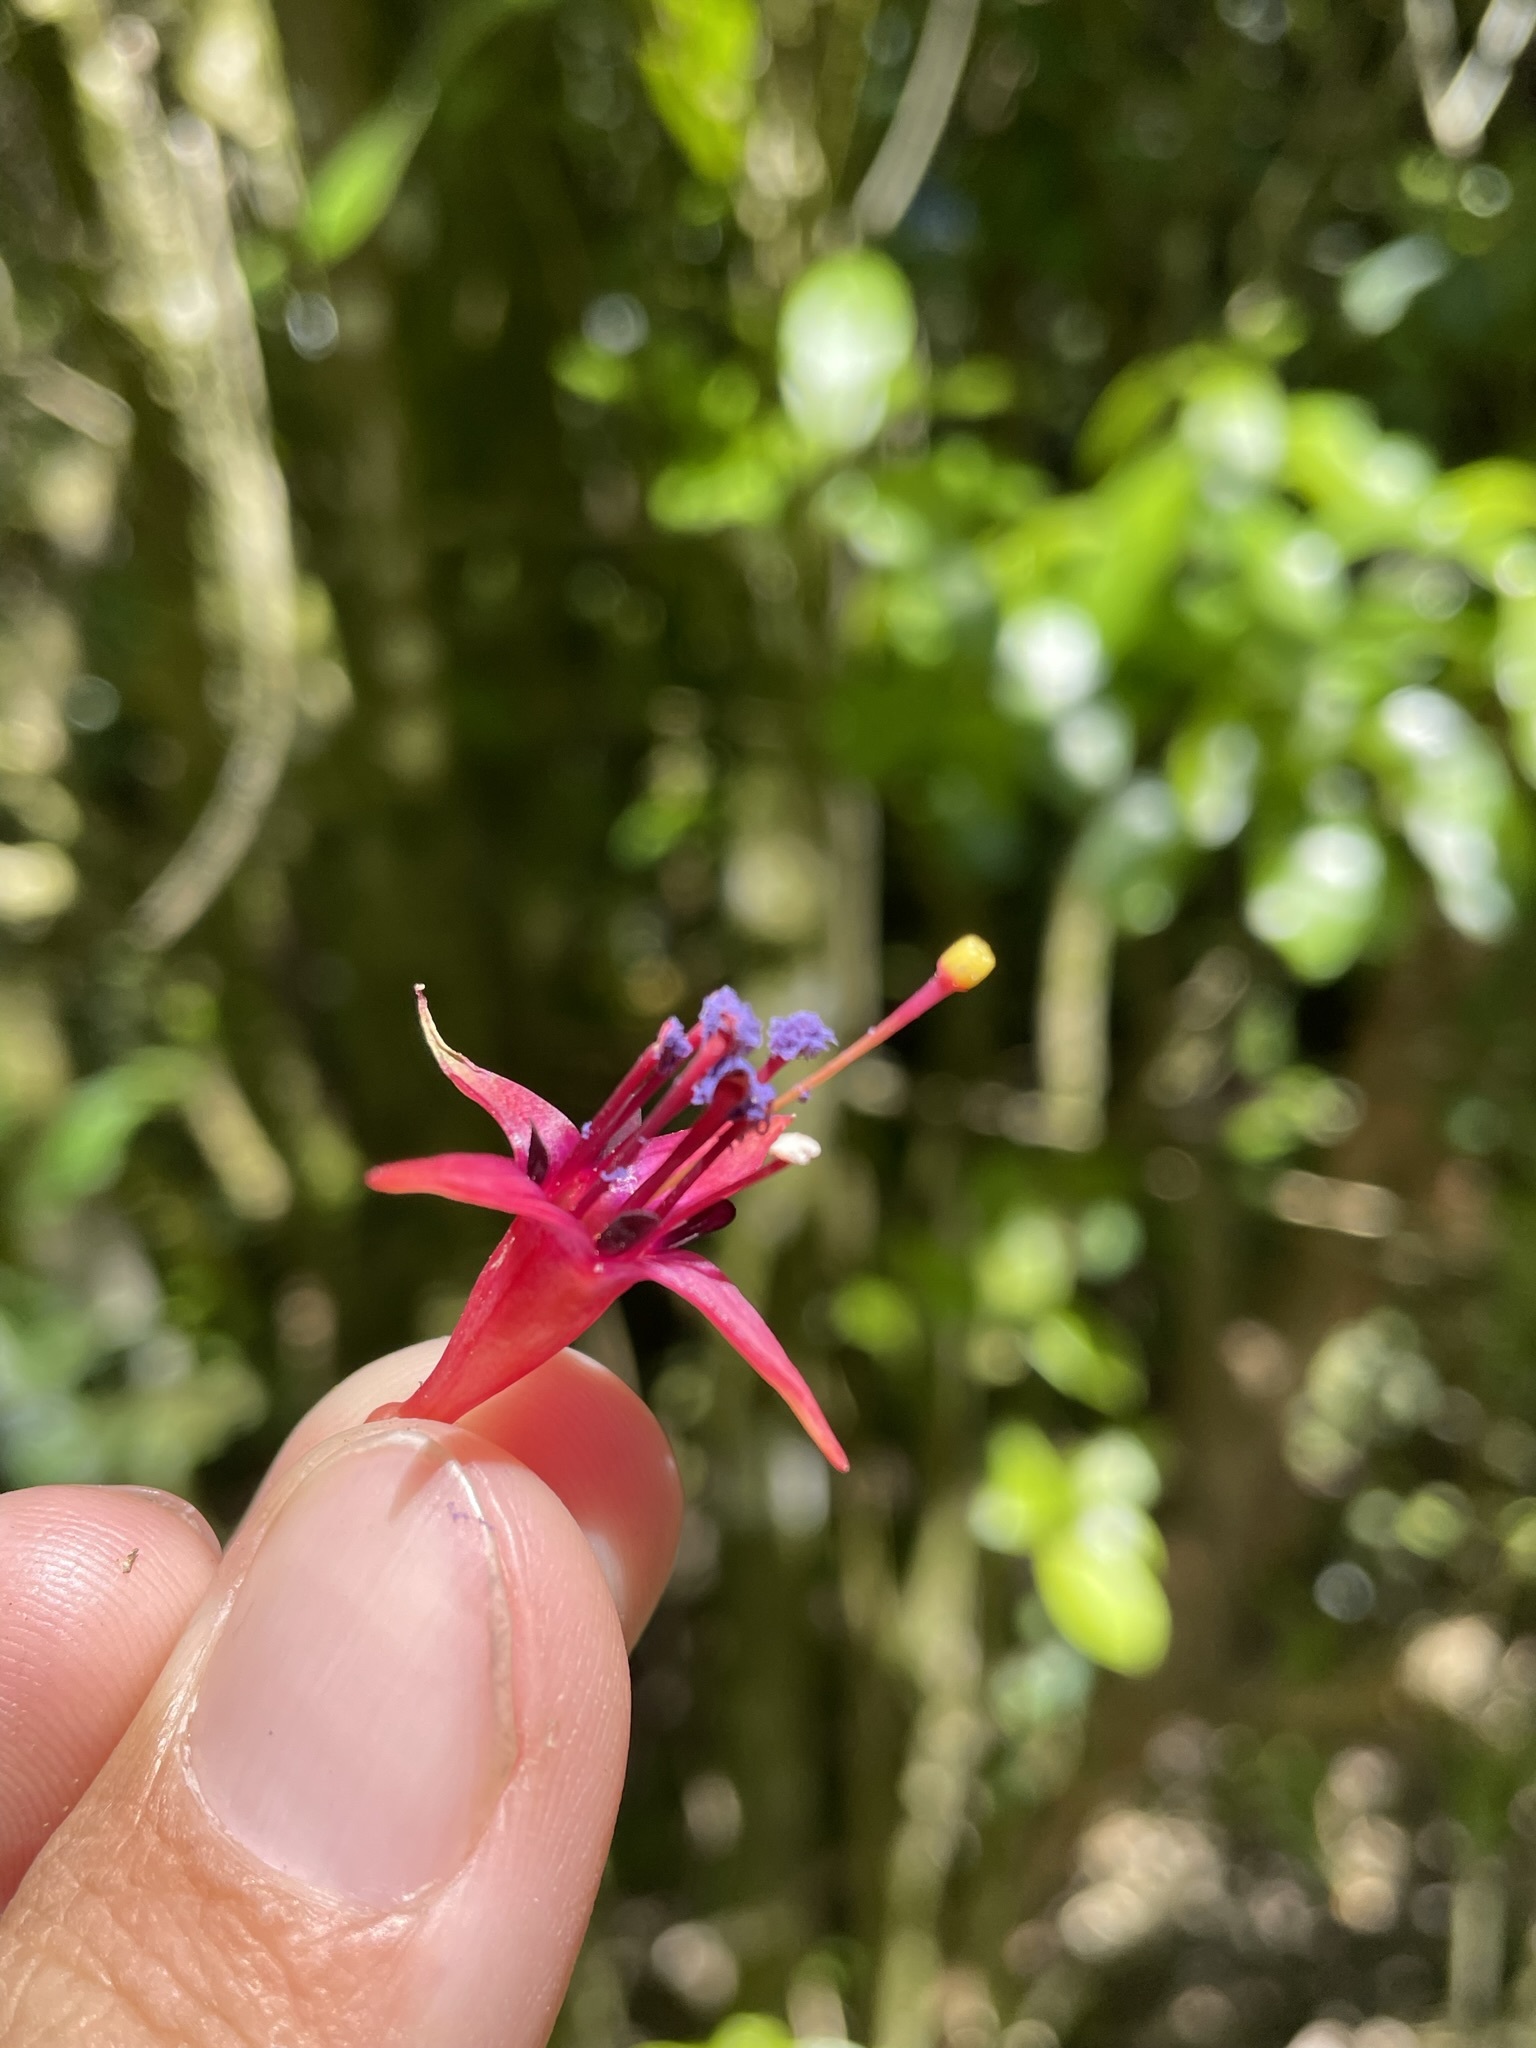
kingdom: Plantae
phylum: Tracheophyta
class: Magnoliopsida
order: Myrtales
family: Onagraceae
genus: Fuchsia
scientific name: Fuchsia excorticata
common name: Tree fuchsia
